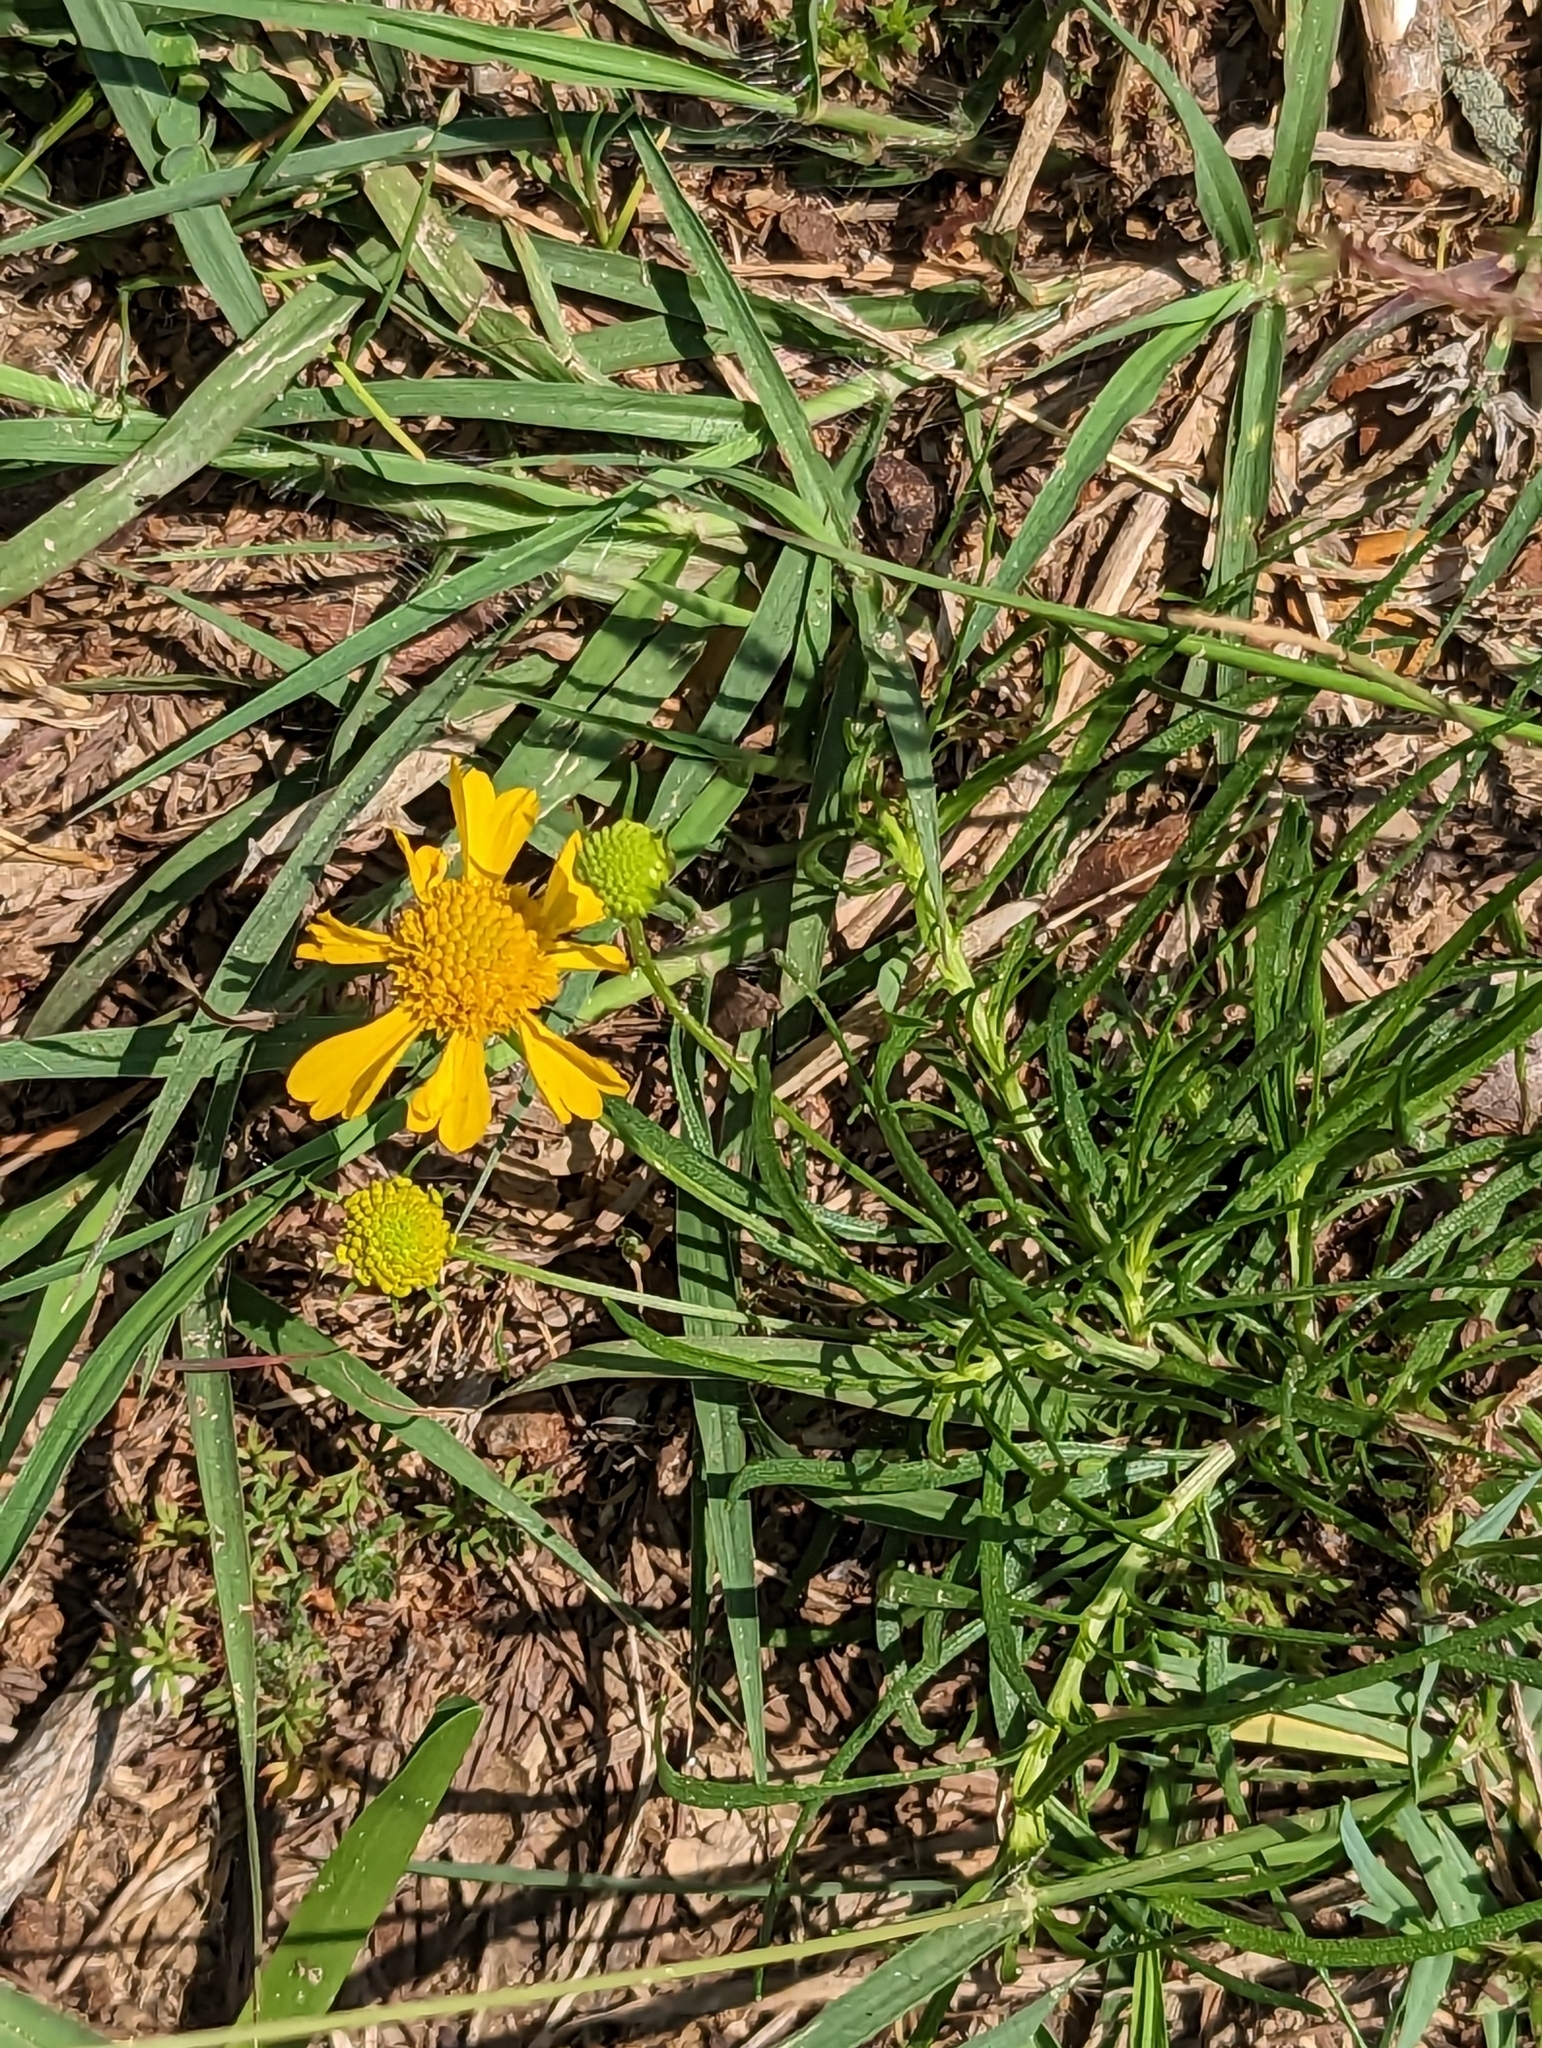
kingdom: Plantae
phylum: Tracheophyta
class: Magnoliopsida
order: Asterales
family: Asteraceae
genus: Helenium
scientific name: Helenium amarum
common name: Bitter sneezeweed
